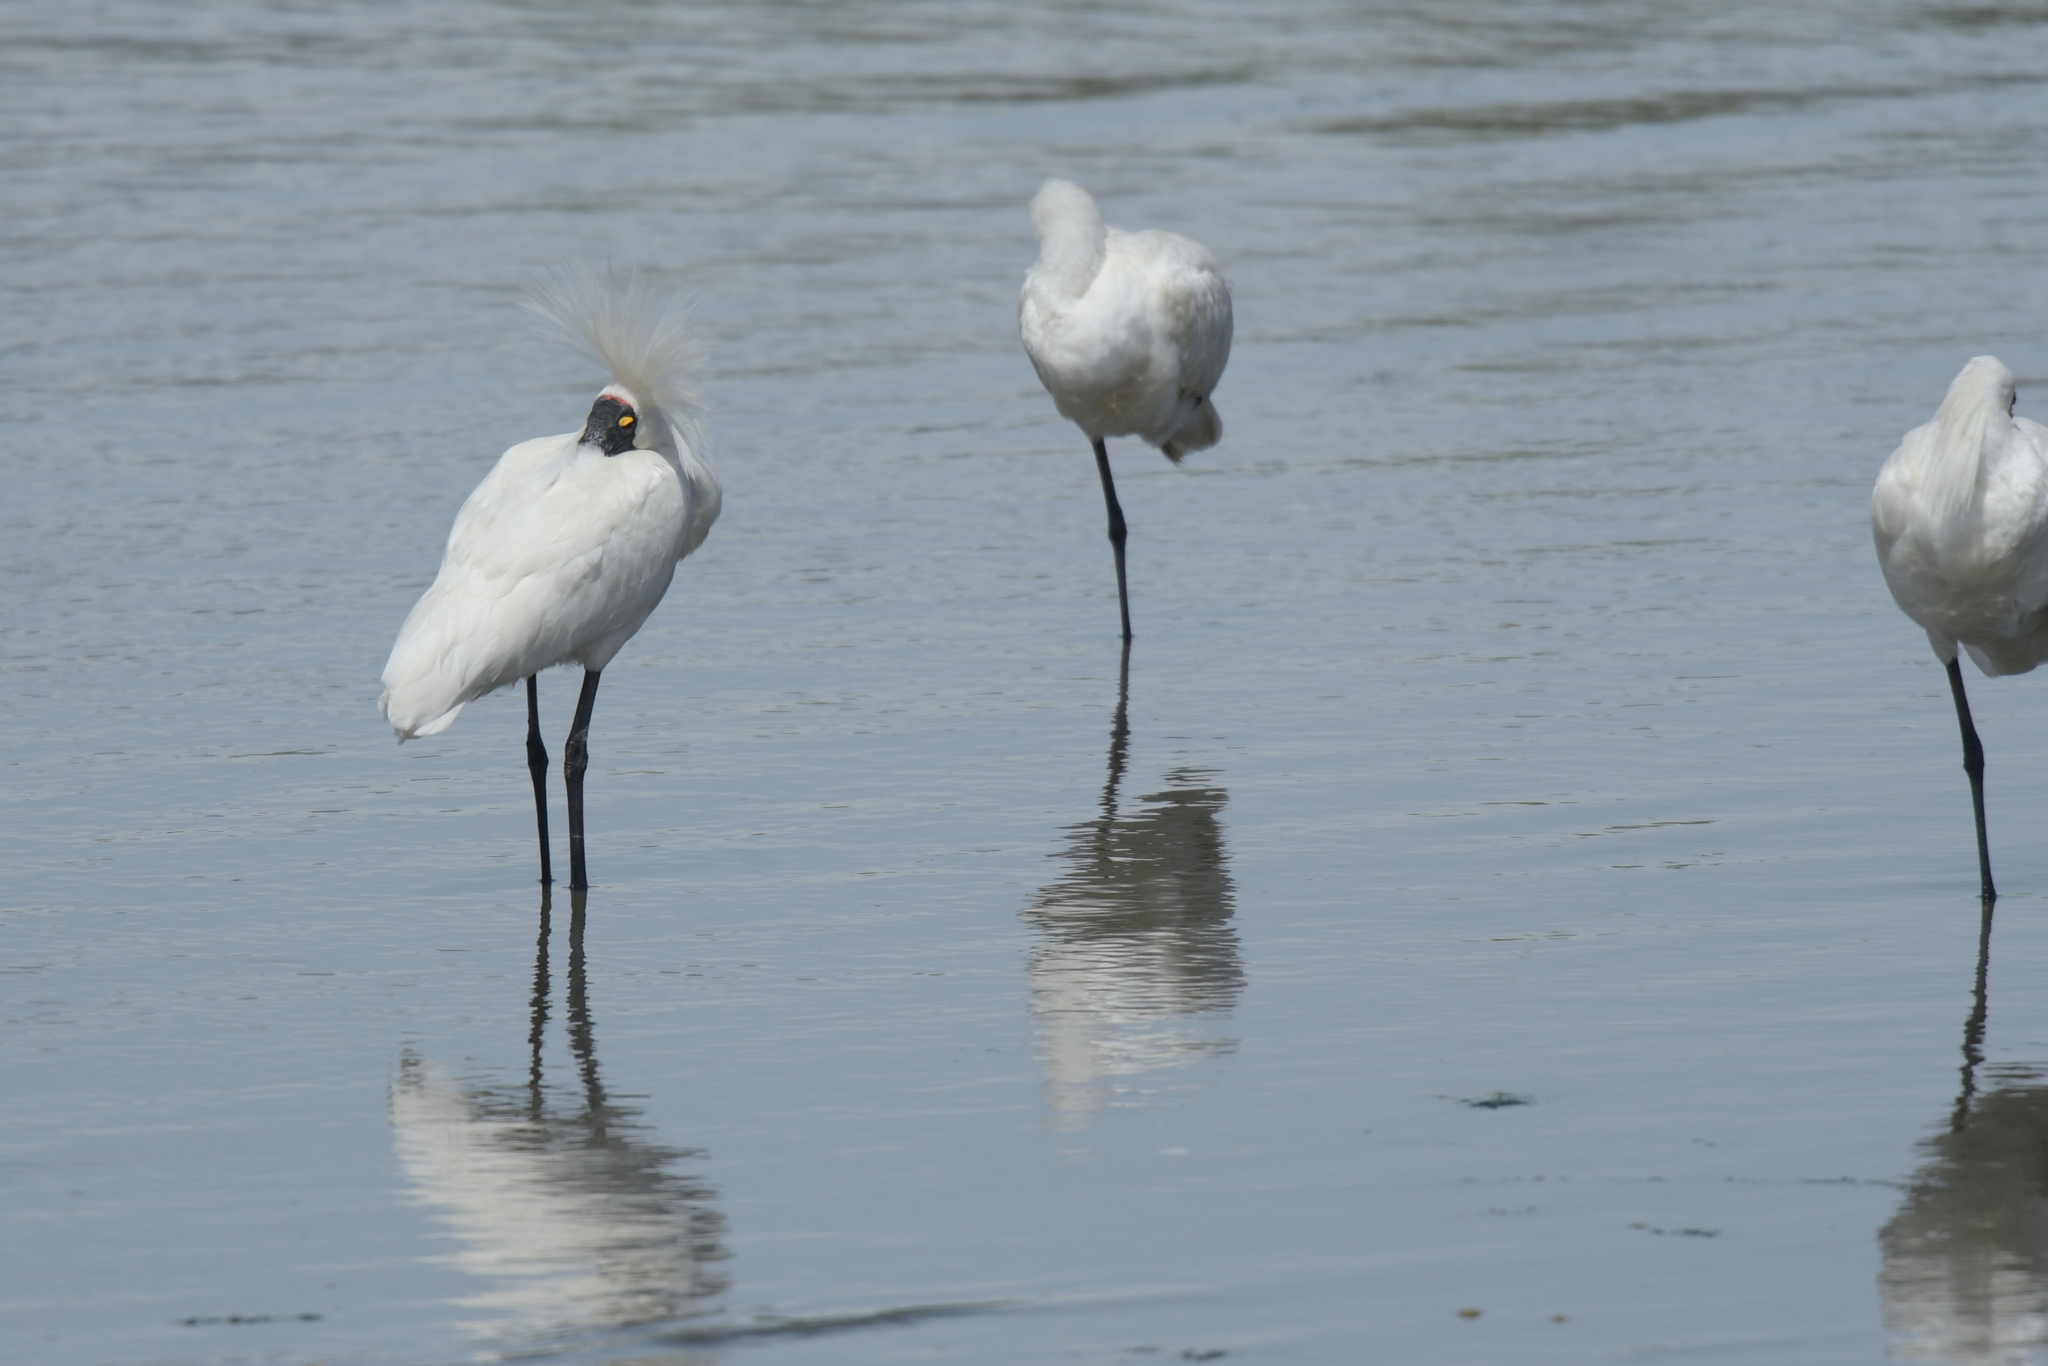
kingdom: Animalia
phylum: Chordata
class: Aves
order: Pelecaniformes
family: Threskiornithidae
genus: Platalea
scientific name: Platalea regia
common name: Royal spoonbill
